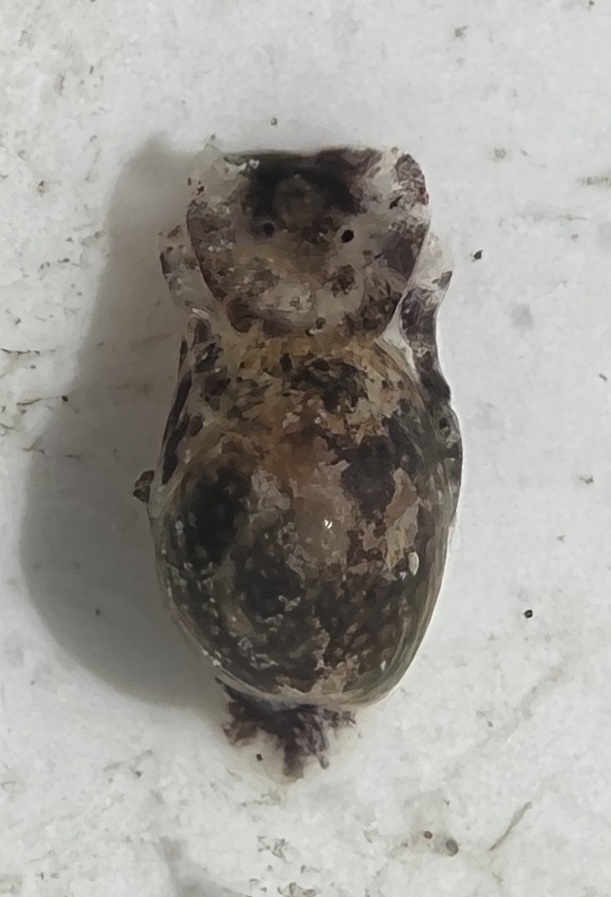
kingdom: Animalia
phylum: Mollusca
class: Gastropoda
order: Cephalaspidea
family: Haminoeidae
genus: Haminoea
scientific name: Haminoea antillarum
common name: Antilles glassy-bubble
